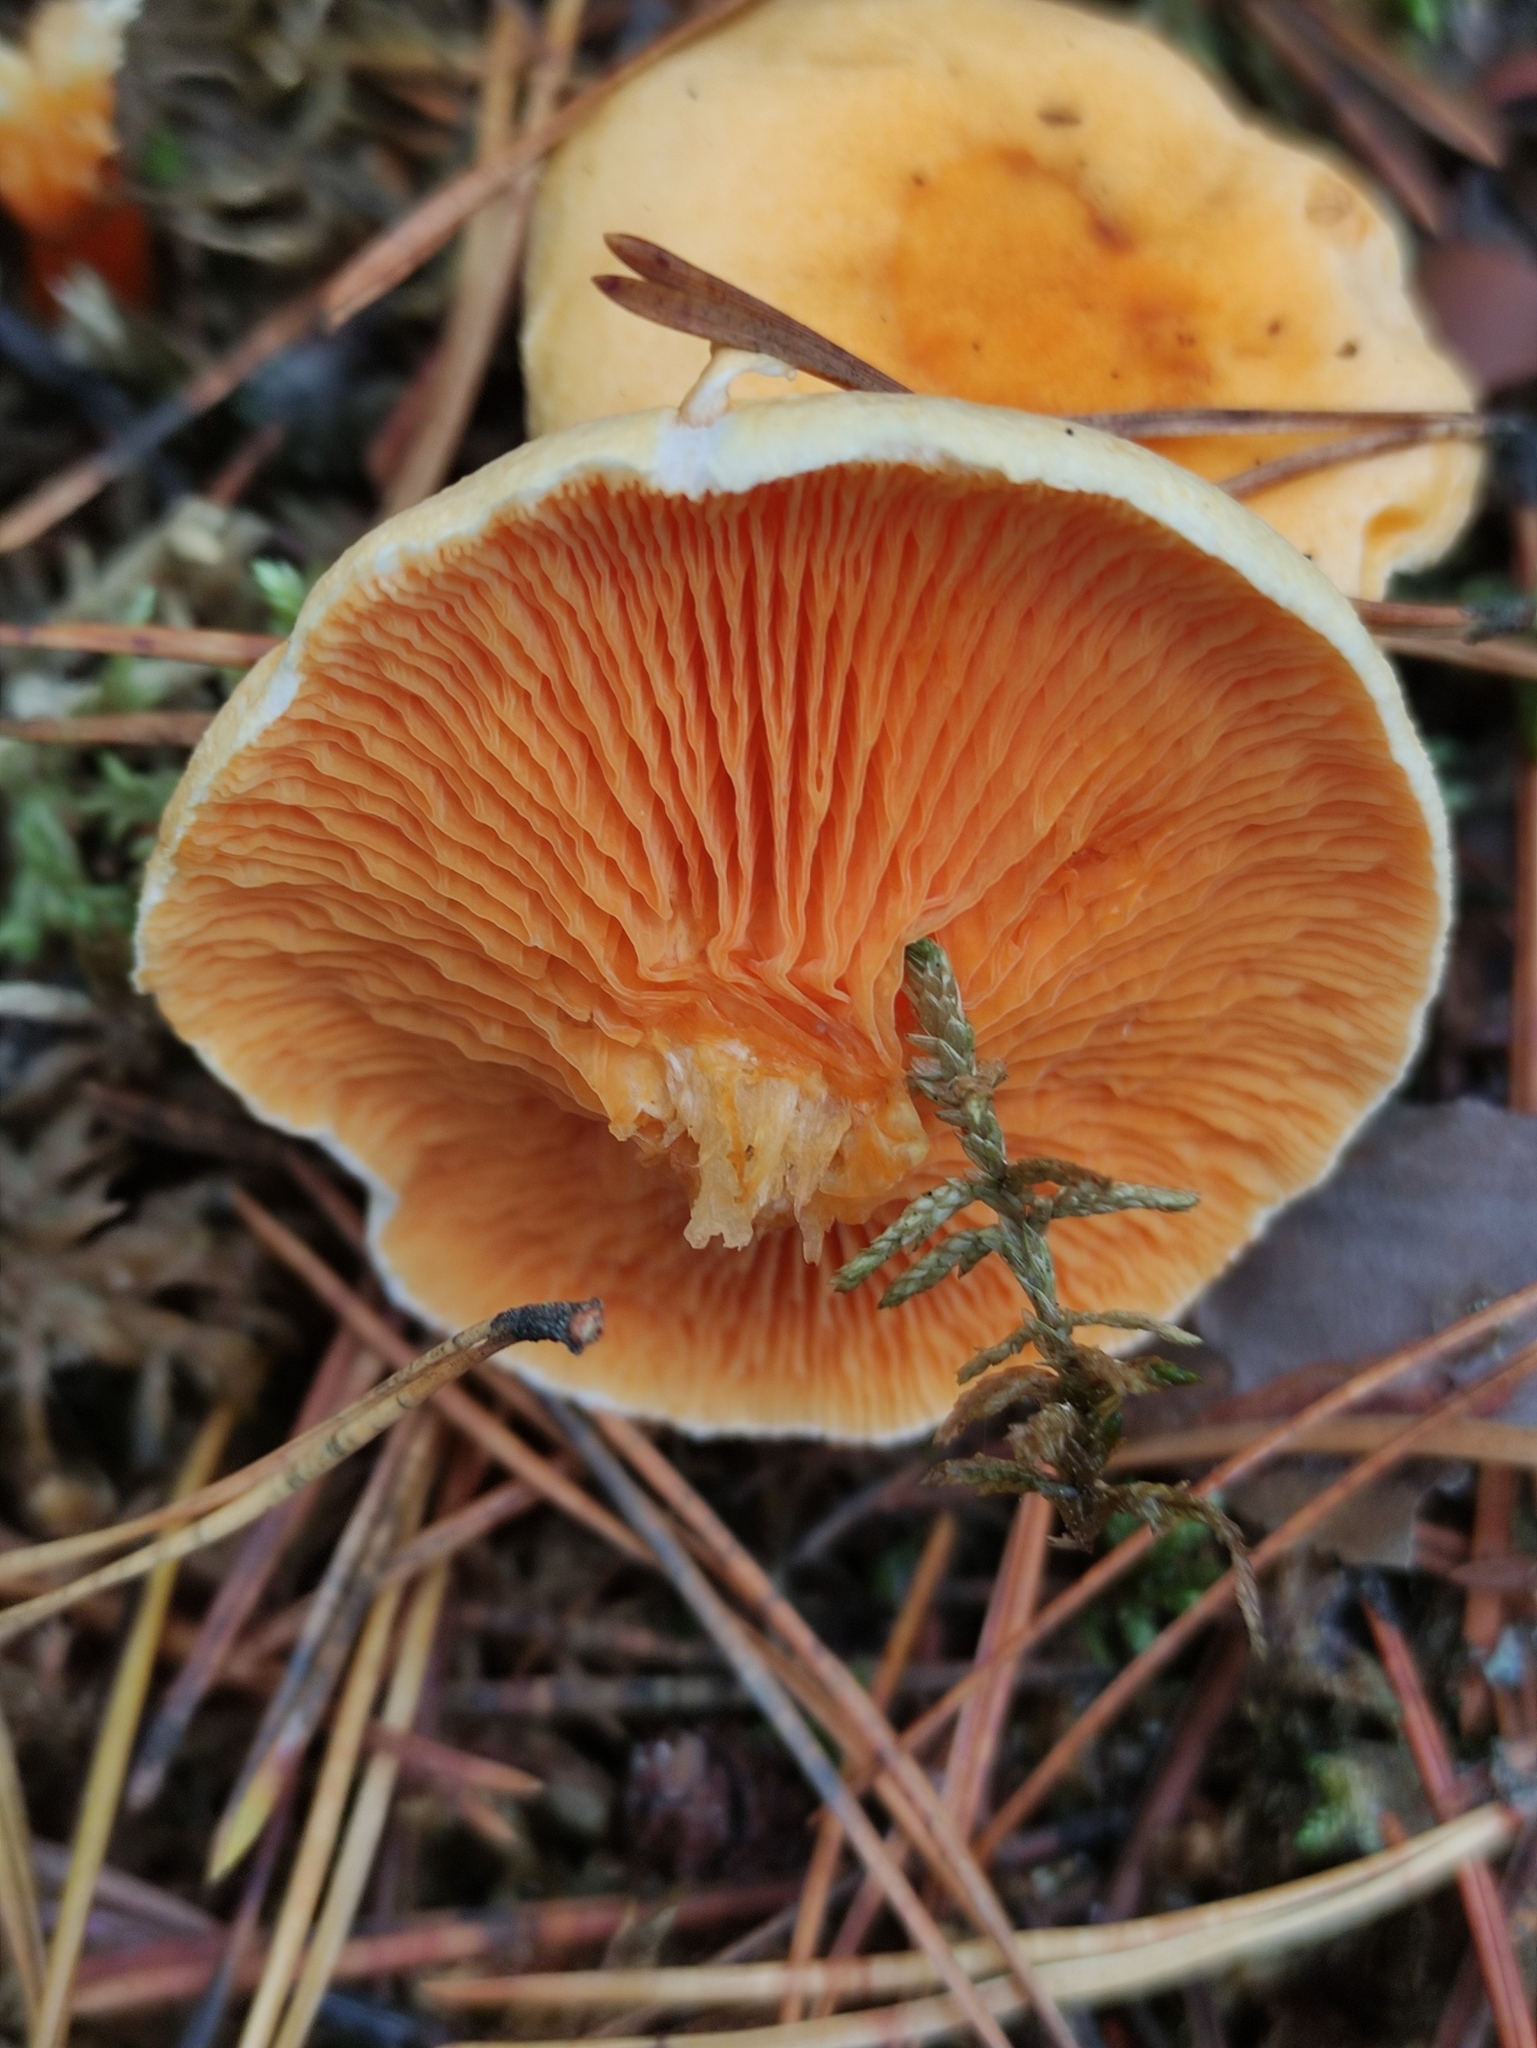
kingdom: Fungi
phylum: Basidiomycota
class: Agaricomycetes
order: Boletales
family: Hygrophoropsidaceae
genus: Hygrophoropsis
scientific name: Hygrophoropsis aurantiaca
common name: False chanterelle
